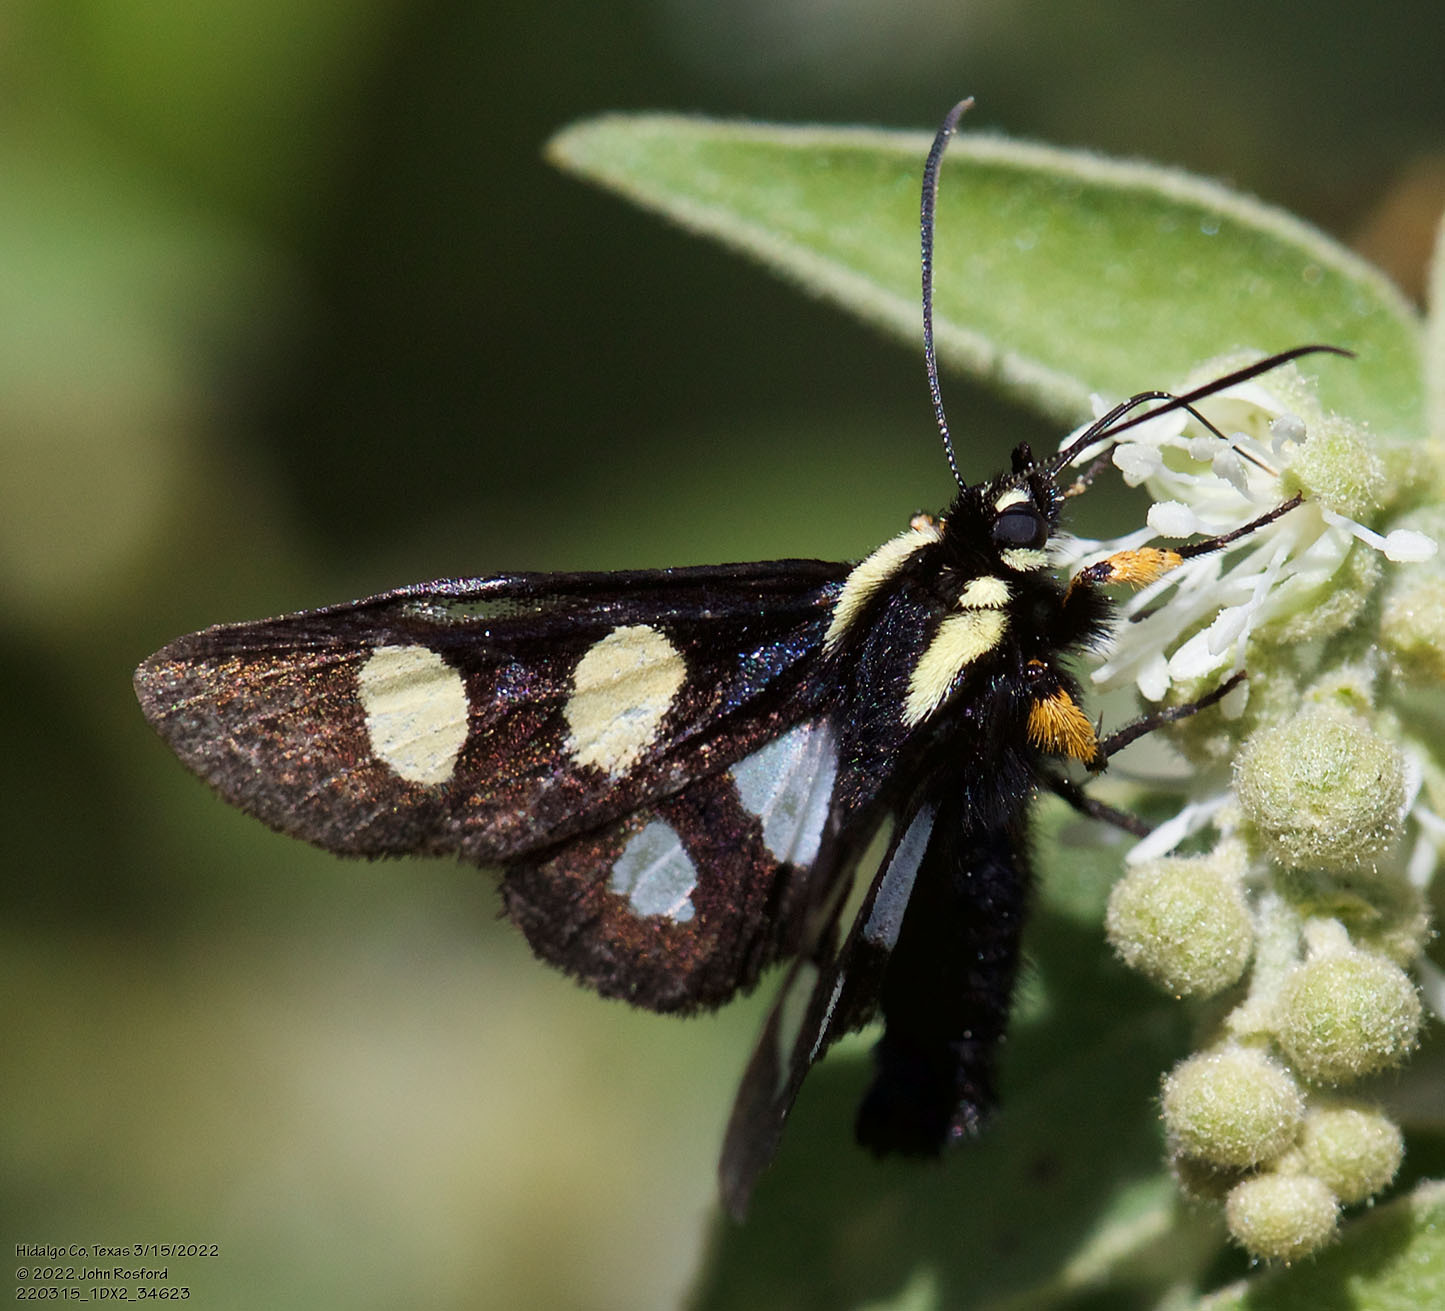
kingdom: Animalia
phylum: Arthropoda
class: Insecta
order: Lepidoptera
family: Noctuidae
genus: Alypia
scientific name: Alypia disparata
